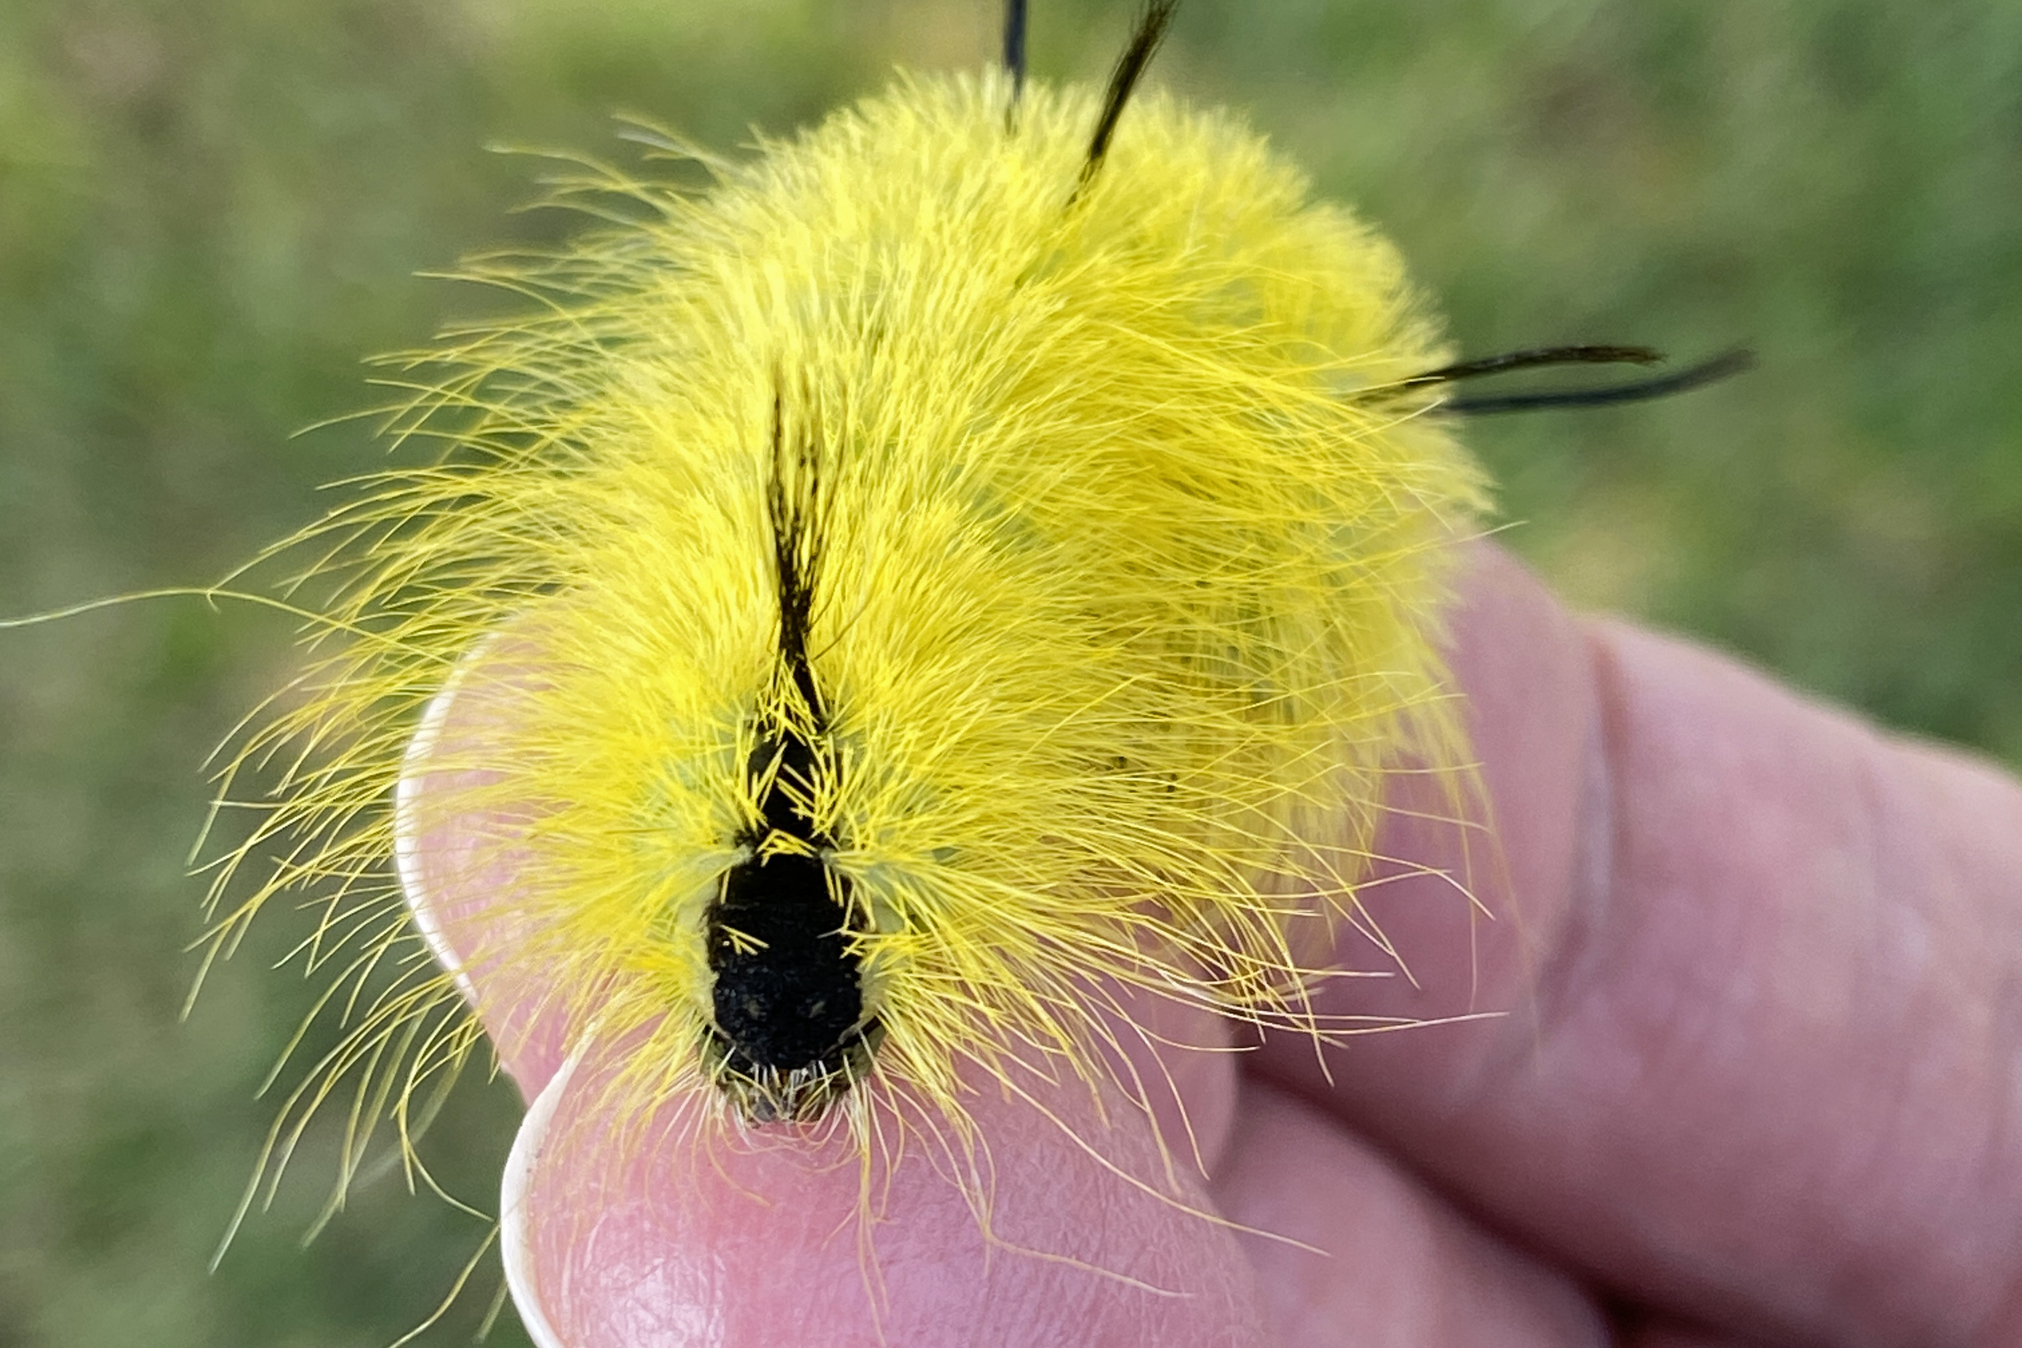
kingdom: Animalia
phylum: Arthropoda
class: Insecta
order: Lepidoptera
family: Noctuidae
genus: Acronicta
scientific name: Acronicta americana
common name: American dagger
